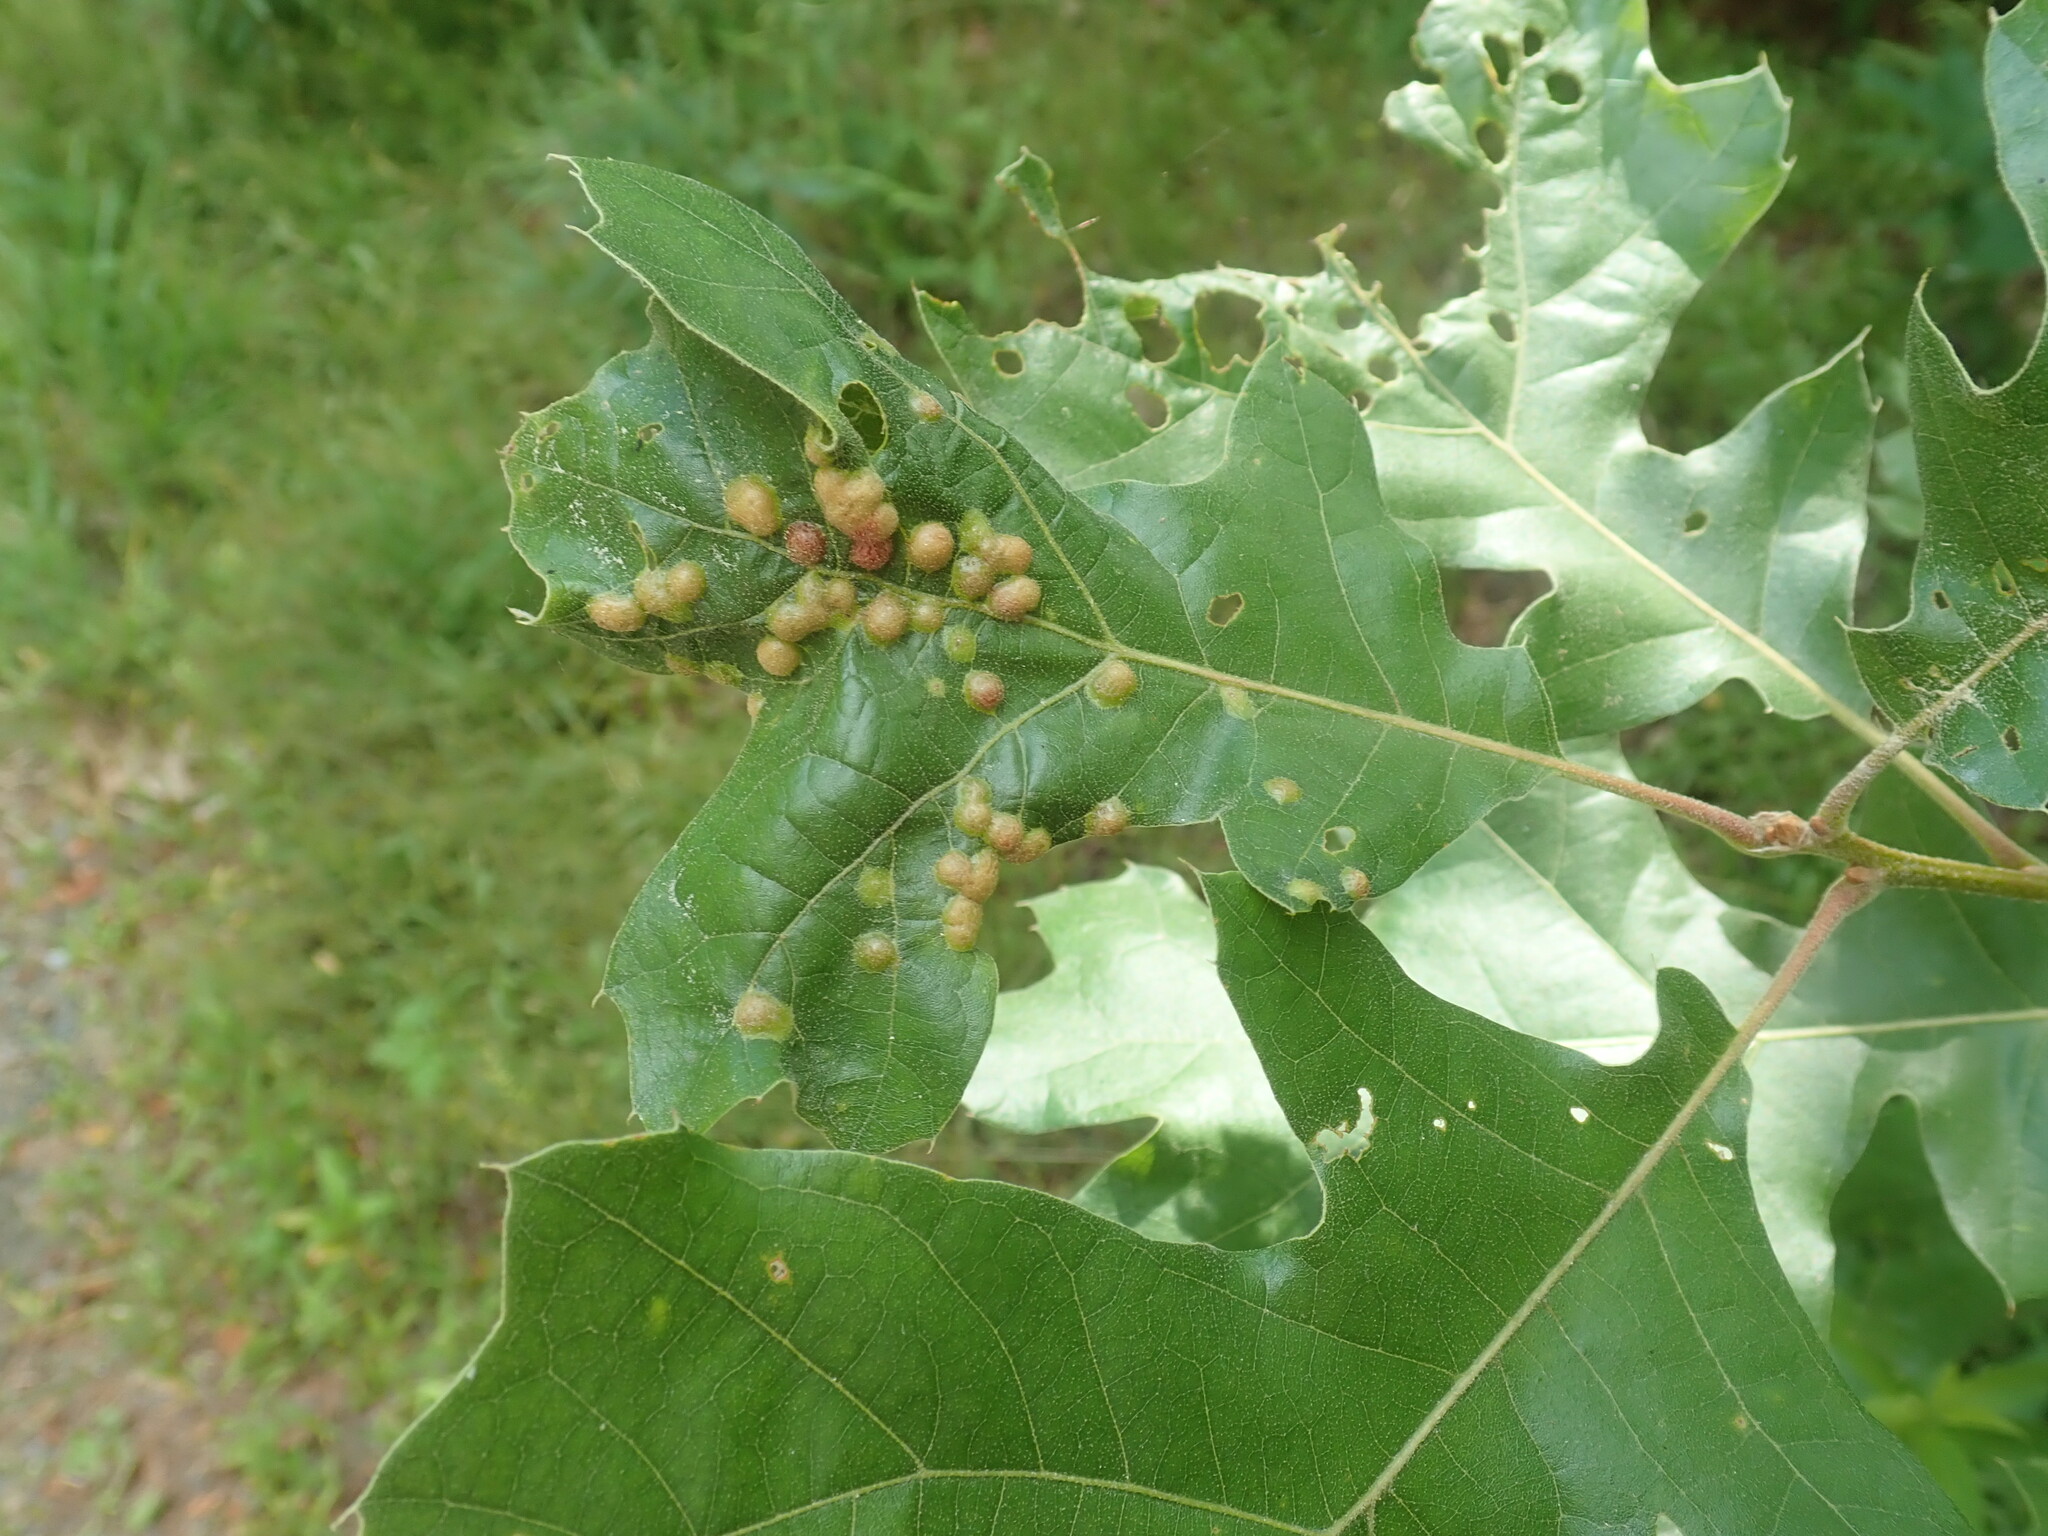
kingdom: Animalia
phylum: Arthropoda
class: Insecta
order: Diptera
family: Cecidomyiidae
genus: Polystepha
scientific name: Polystepha pilulae
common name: Oak leaf gall midge
